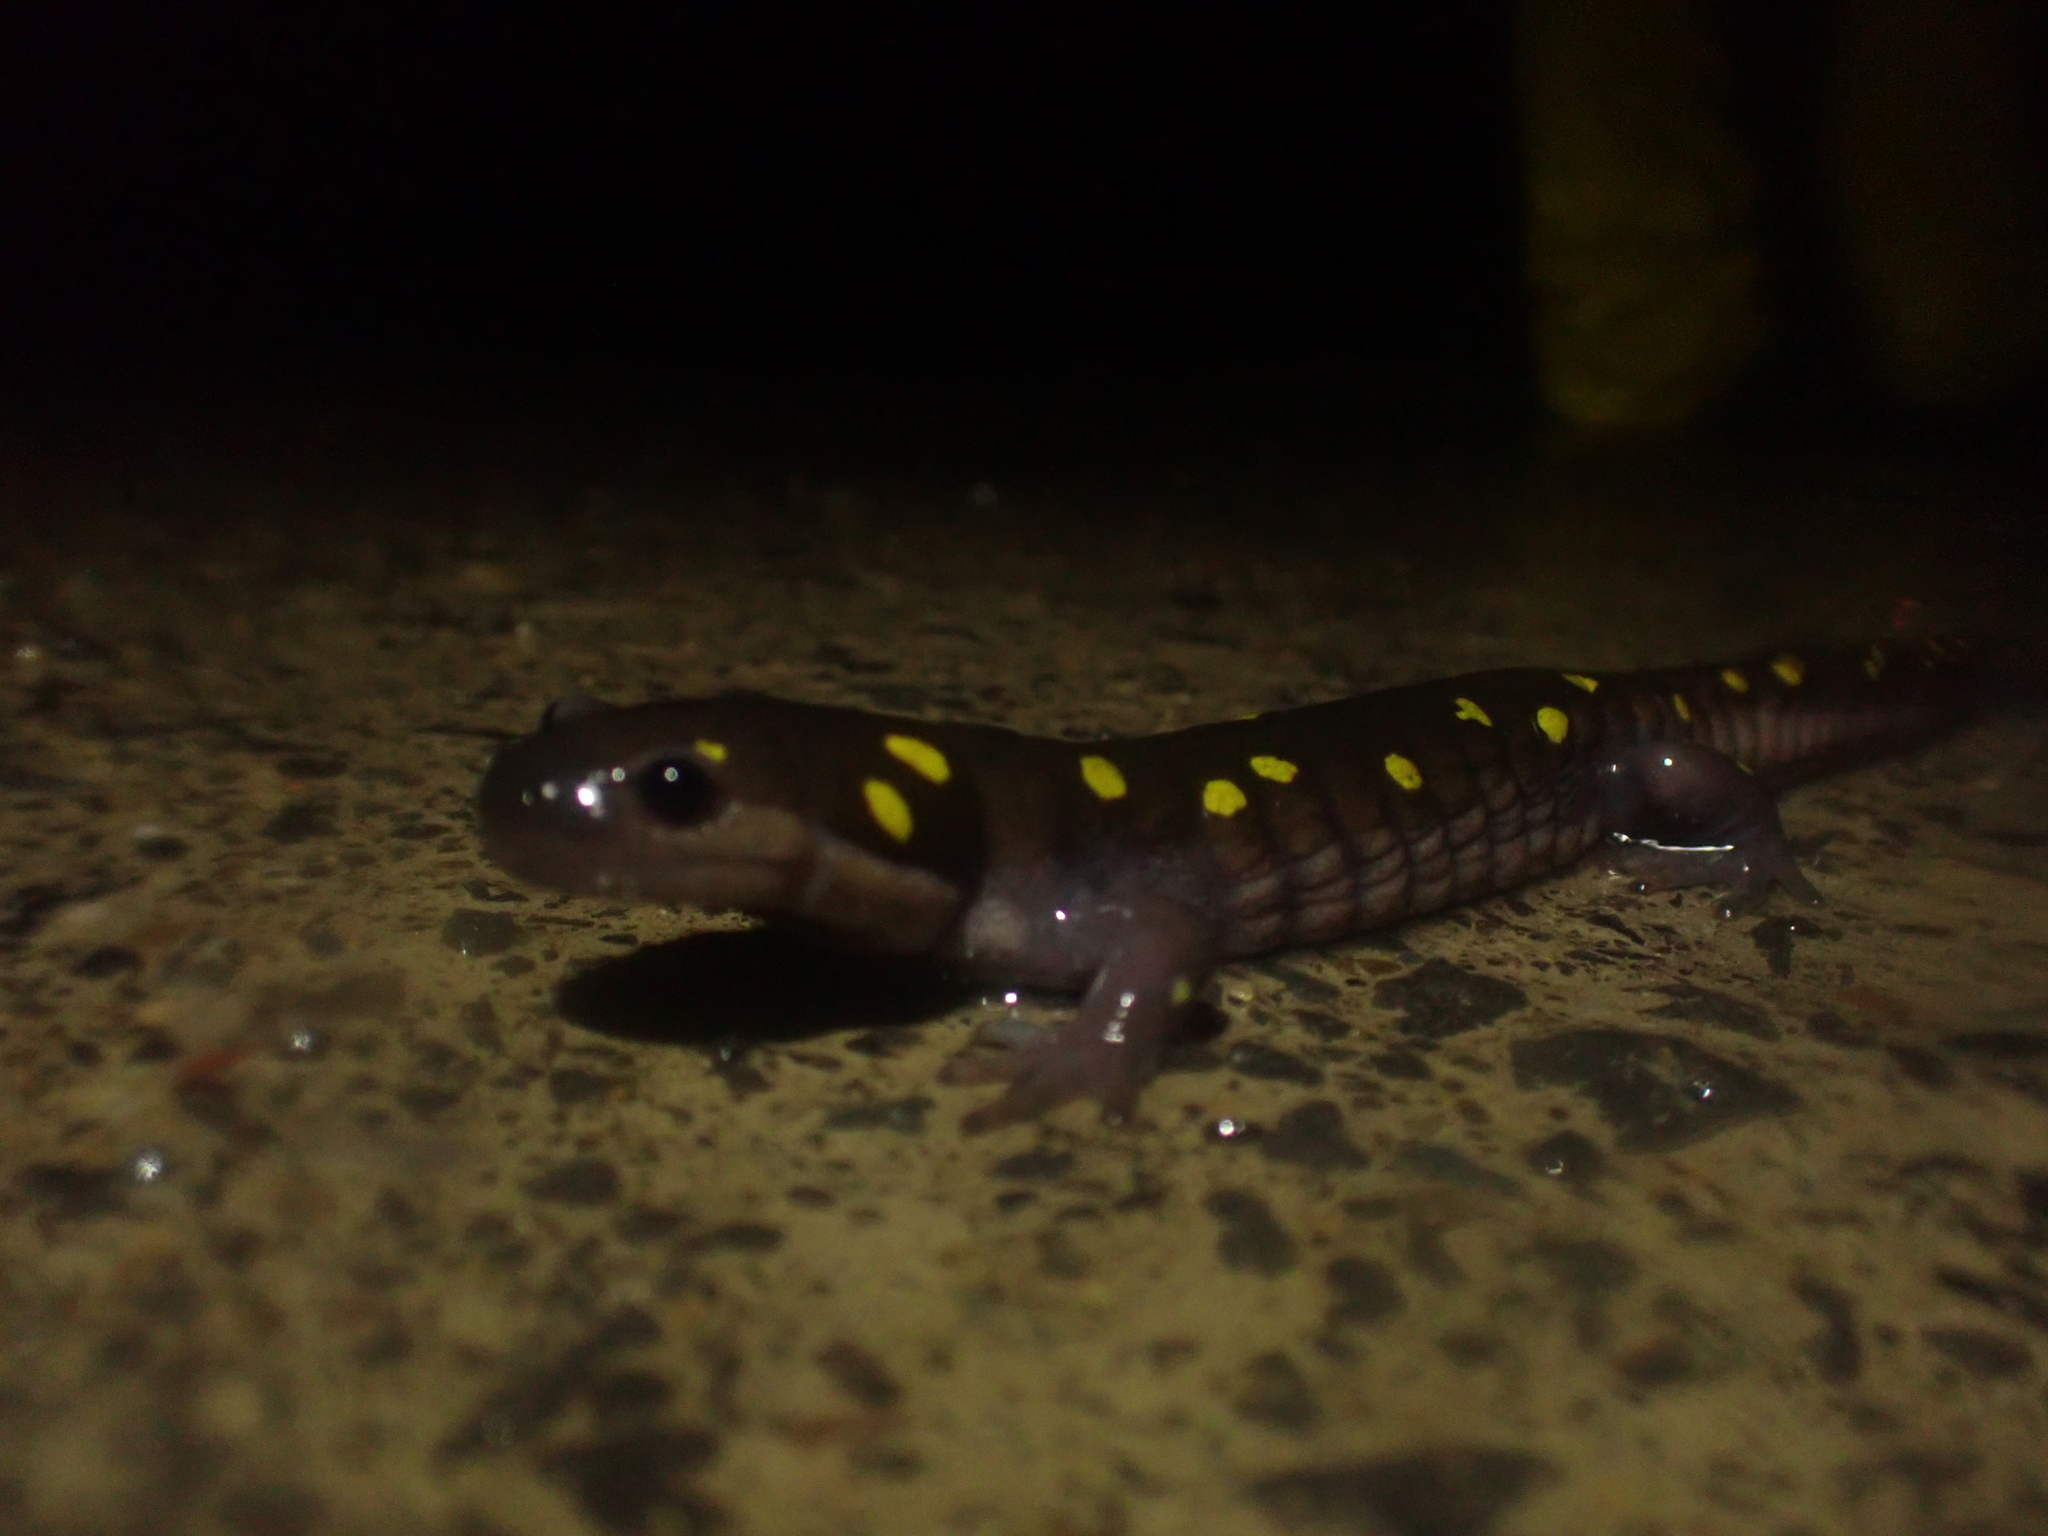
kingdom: Animalia
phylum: Chordata
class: Amphibia
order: Caudata
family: Ambystomatidae
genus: Ambystoma
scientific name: Ambystoma maculatum
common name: Spotted salamander
